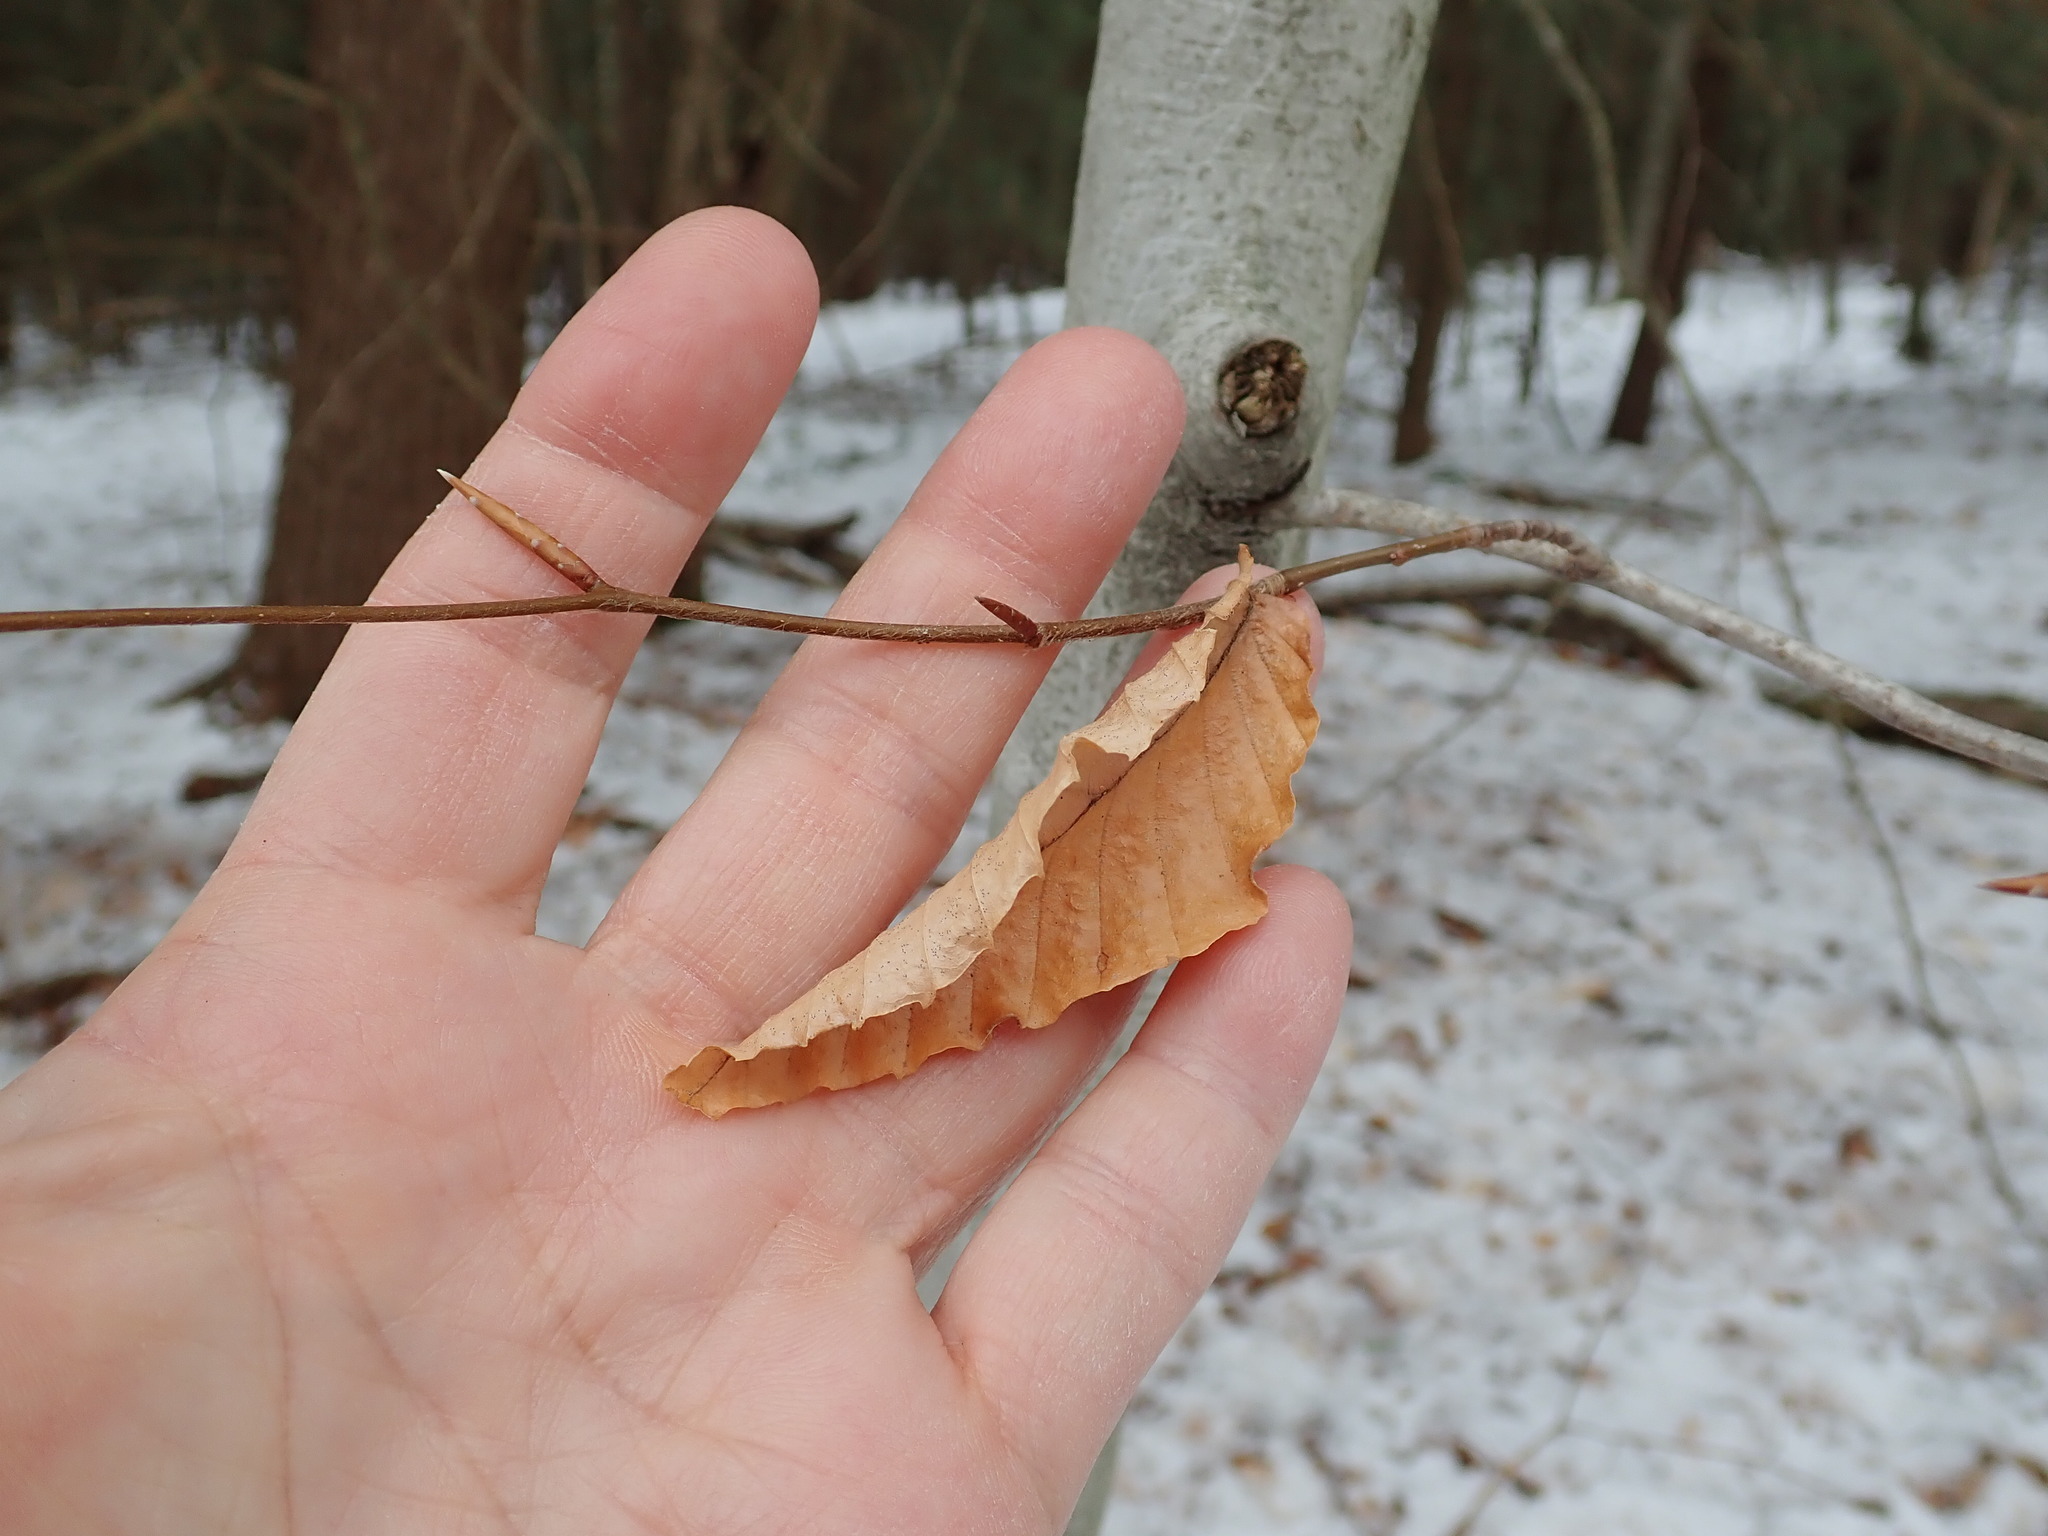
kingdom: Plantae
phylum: Tracheophyta
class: Magnoliopsida
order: Fagales
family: Fagaceae
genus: Fagus
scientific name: Fagus grandifolia
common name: American beech
